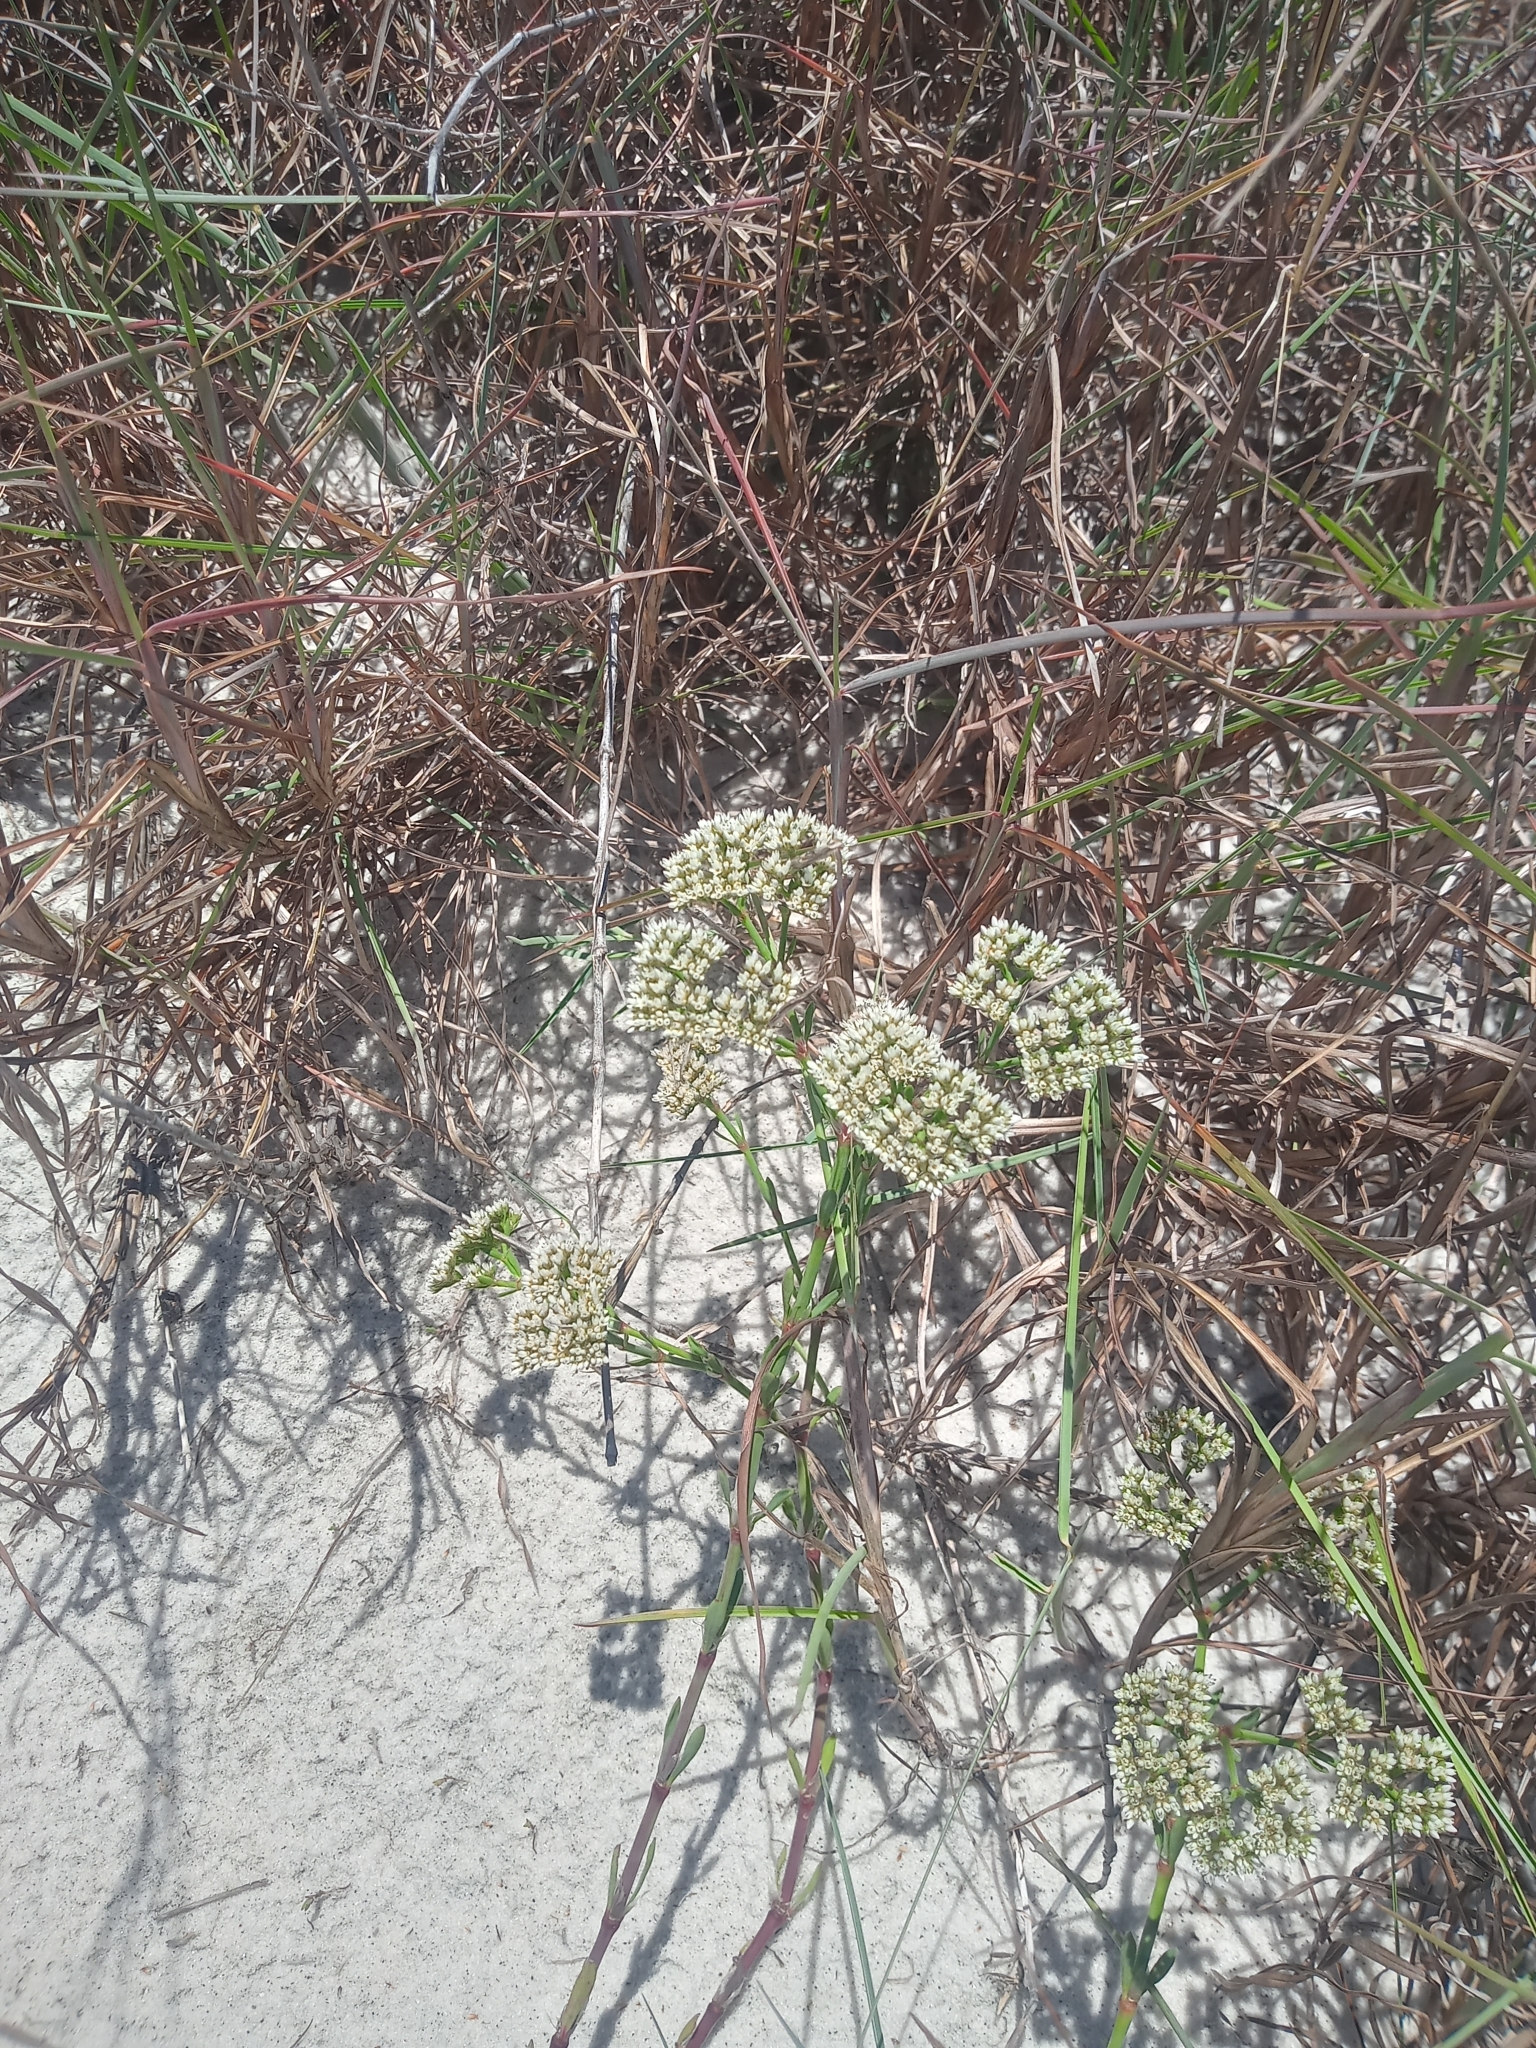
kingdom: Plantae
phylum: Tracheophyta
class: Magnoliopsida
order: Caryophyllales
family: Caryophyllaceae
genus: Paronychia
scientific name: Paronychia erecta
